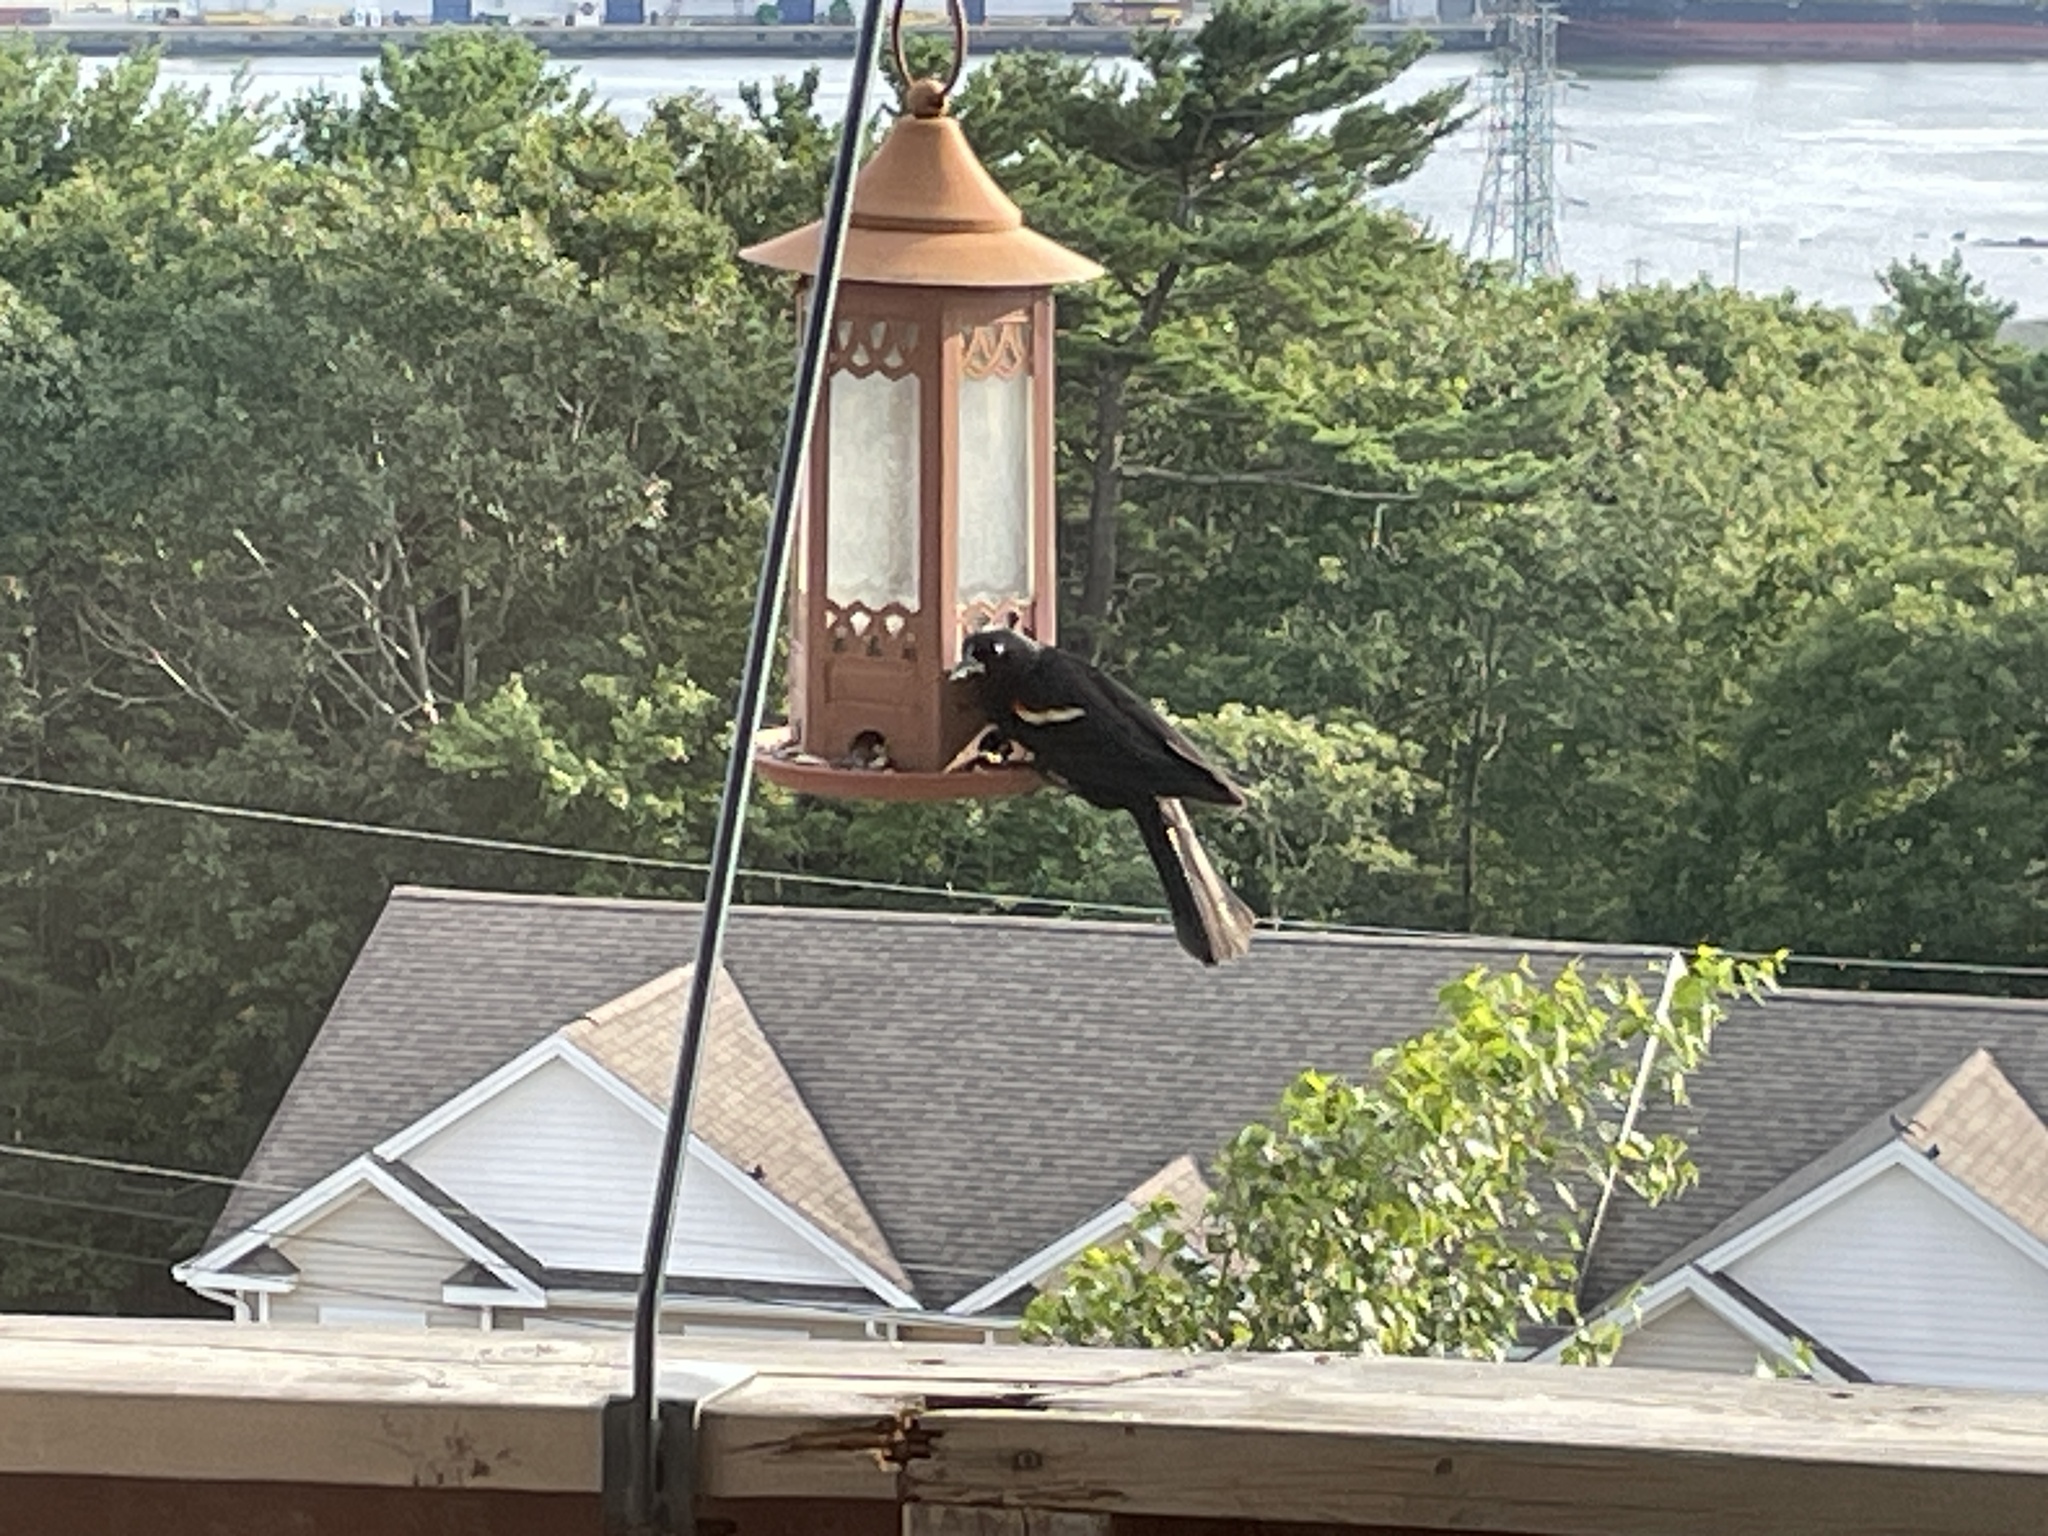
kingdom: Animalia
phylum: Chordata
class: Aves
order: Passeriformes
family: Icteridae
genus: Agelaius
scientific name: Agelaius phoeniceus
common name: Red-winged blackbird
